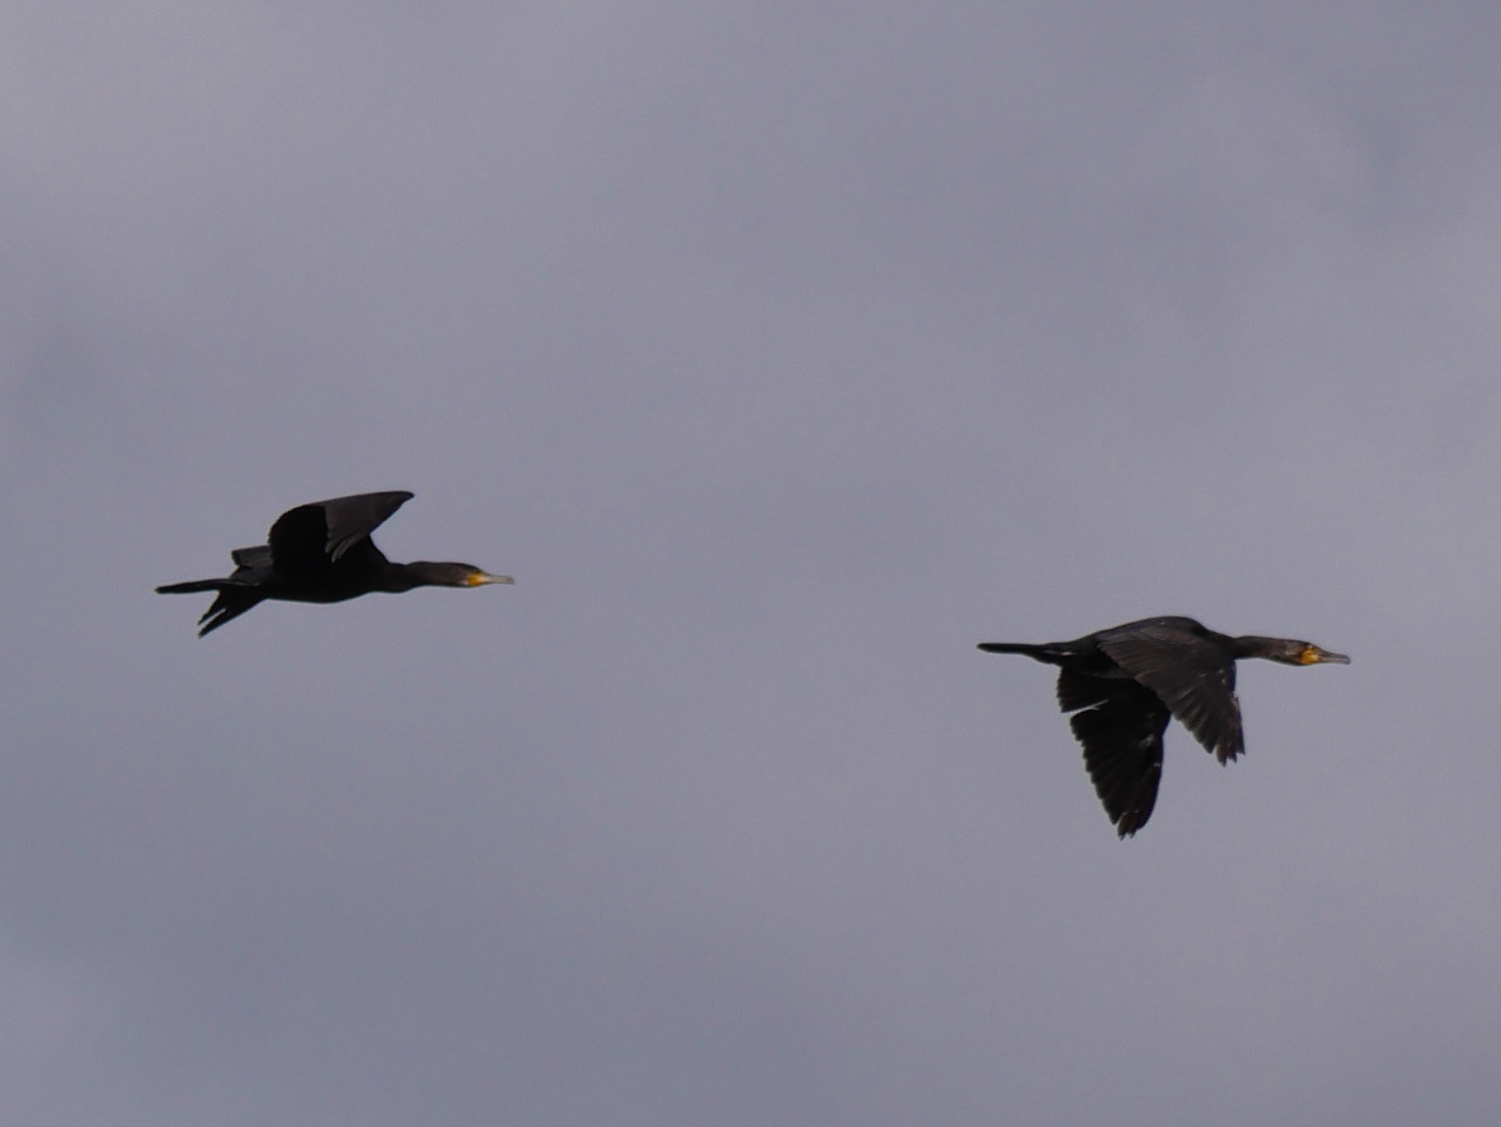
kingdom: Animalia
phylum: Chordata
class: Aves
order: Suliformes
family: Phalacrocoracidae
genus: Phalacrocorax
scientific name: Phalacrocorax carbo
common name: Great cormorant
